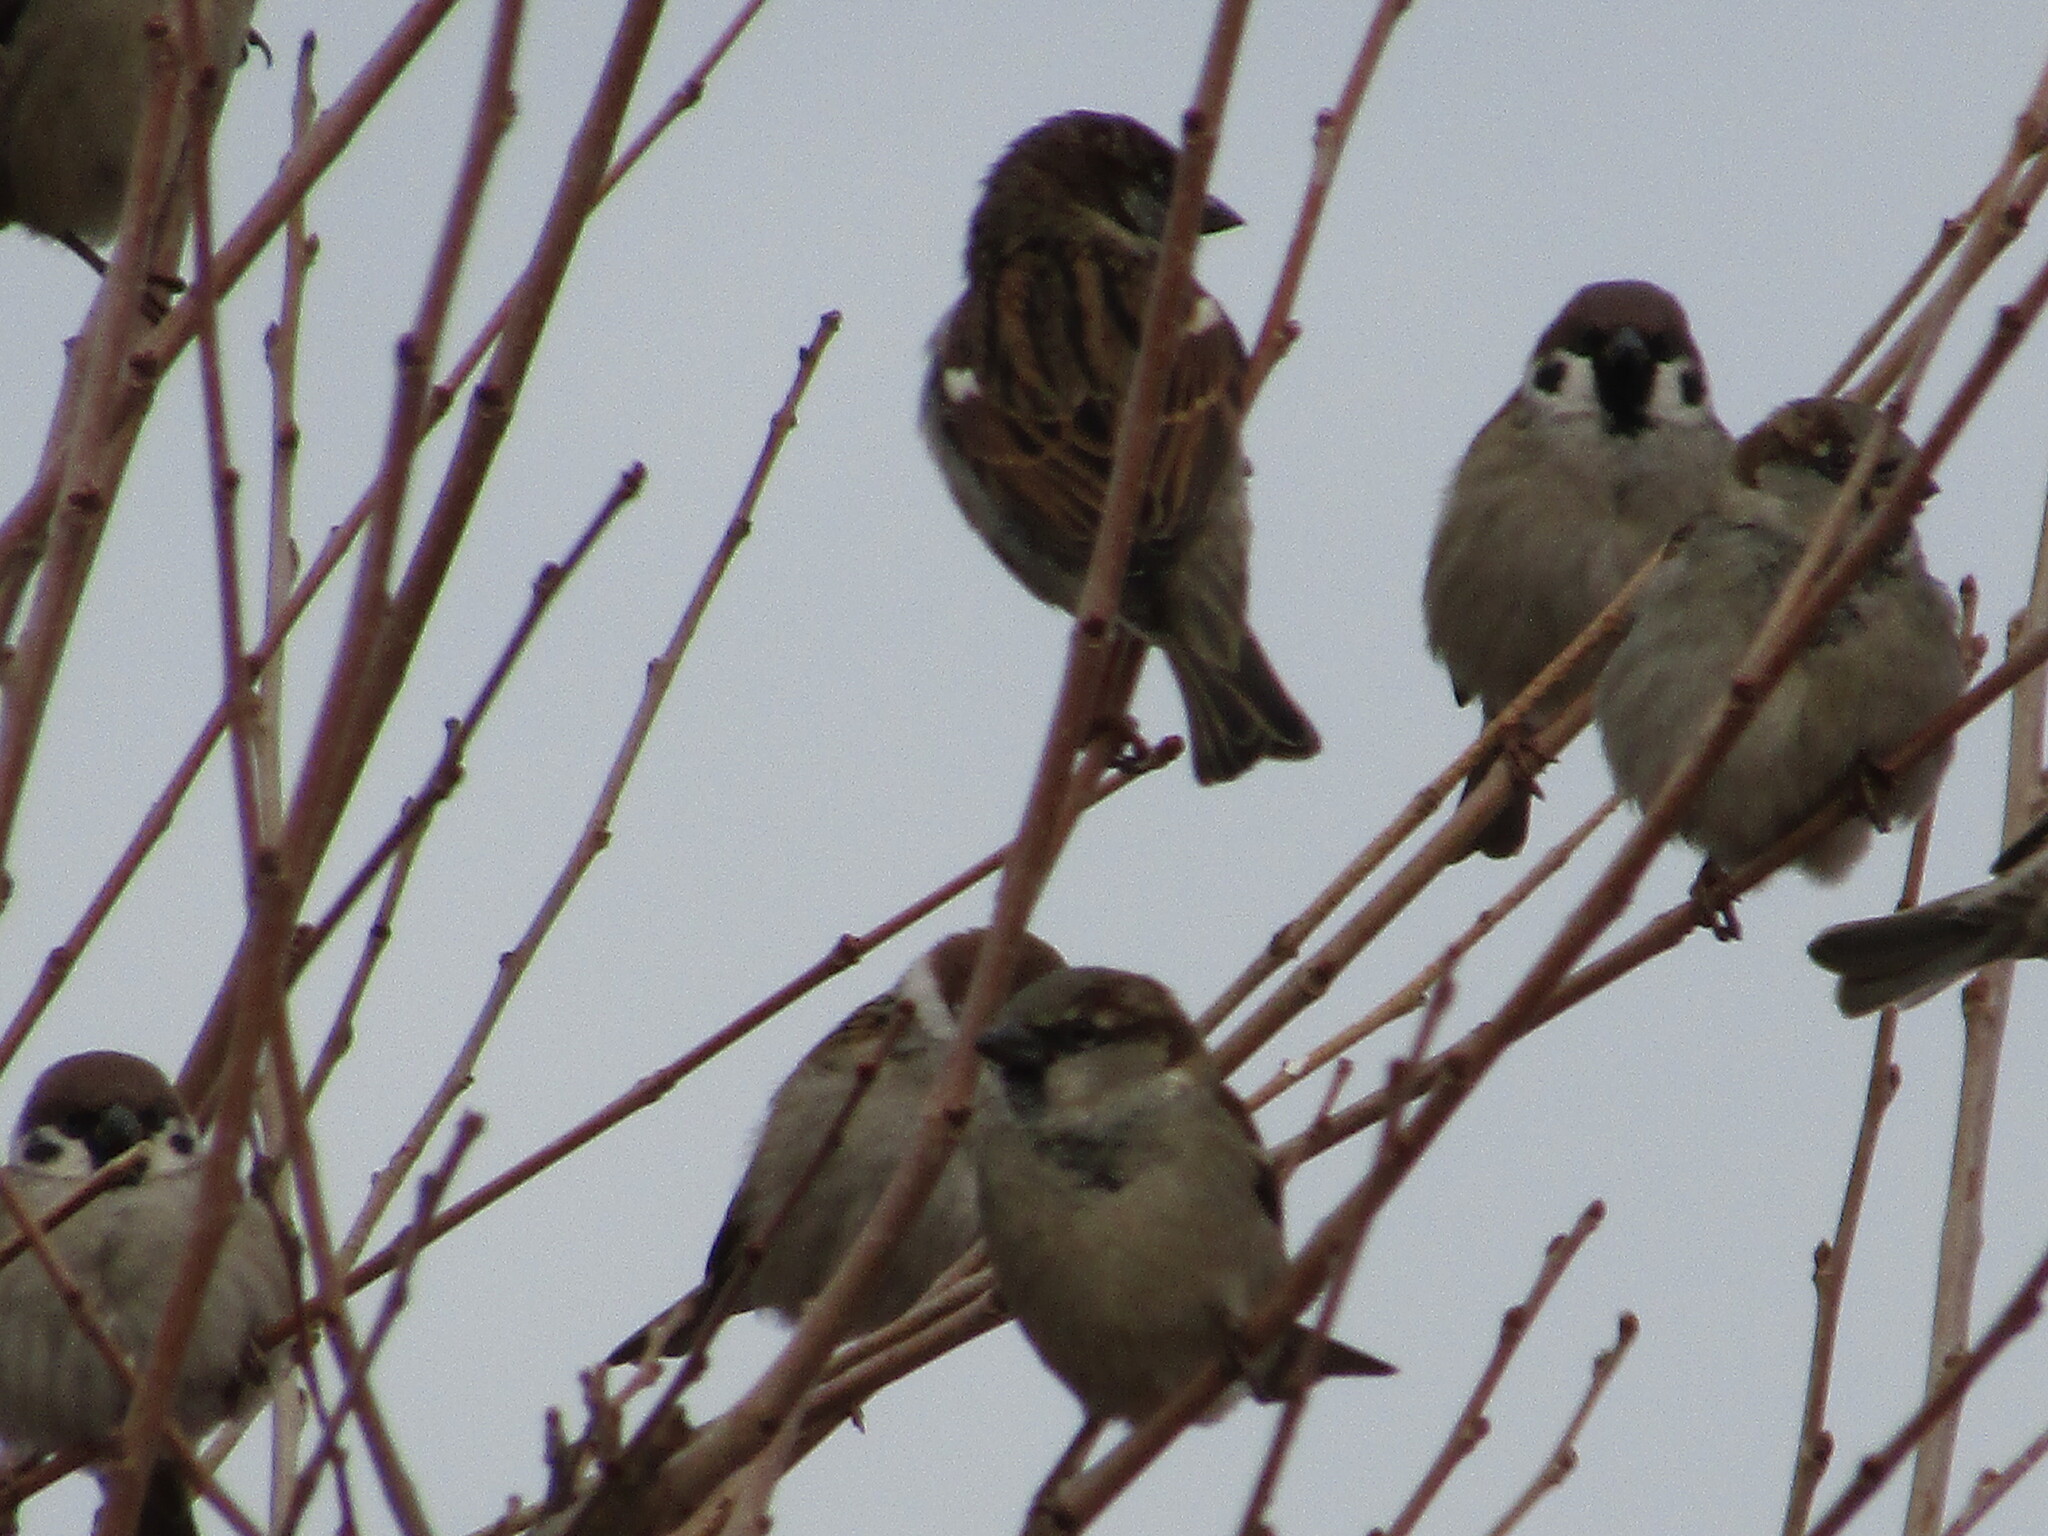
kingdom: Animalia
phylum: Chordata
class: Aves
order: Passeriformes
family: Passeridae
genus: Passer
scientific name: Passer montanus
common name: Eurasian tree sparrow
